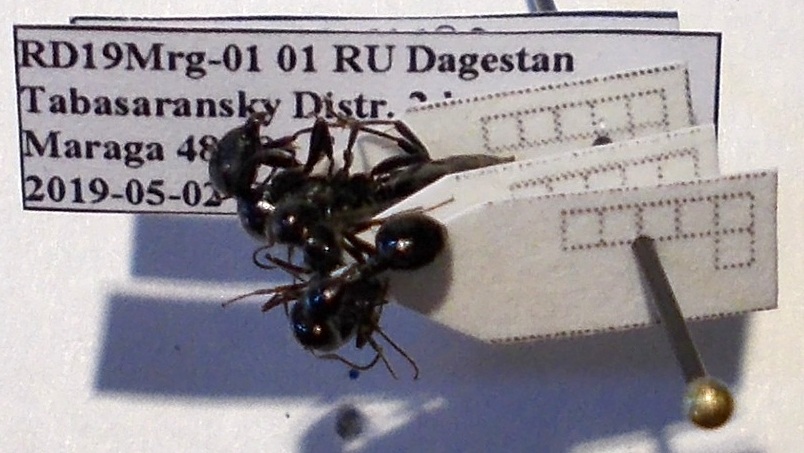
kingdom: Animalia
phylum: Arthropoda
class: Insecta
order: Hymenoptera
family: Formicidae
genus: Camponotus
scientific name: Camponotus piceus
